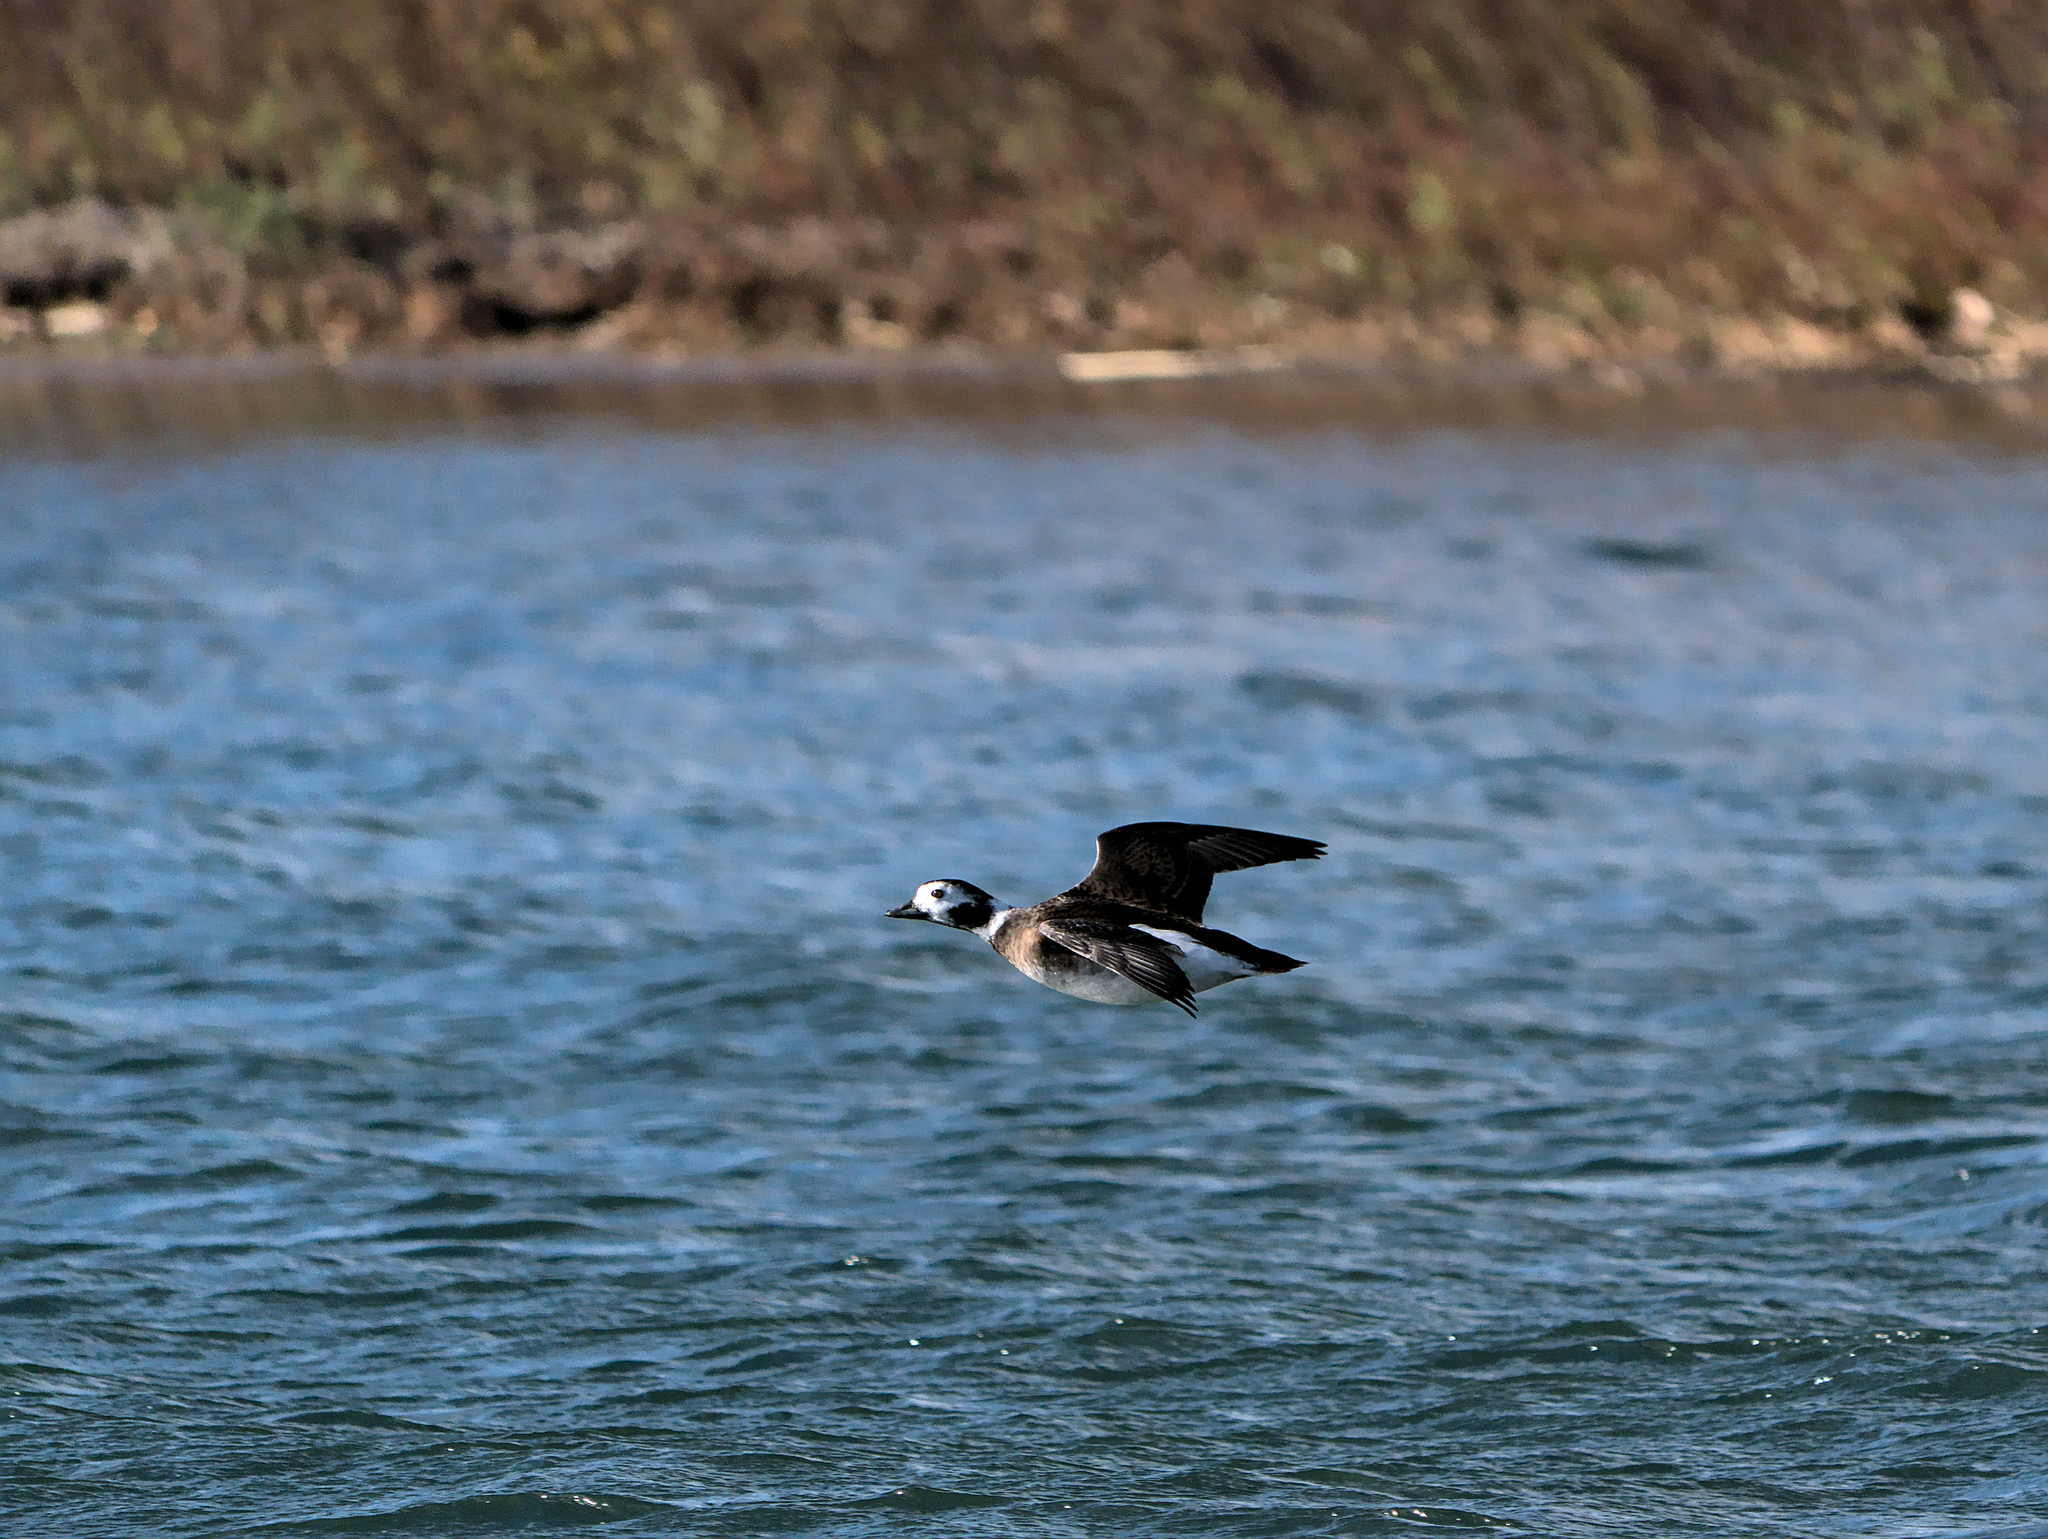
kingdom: Animalia
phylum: Chordata
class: Aves
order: Anseriformes
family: Anatidae
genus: Clangula
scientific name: Clangula hyemalis
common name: Long-tailed duck
